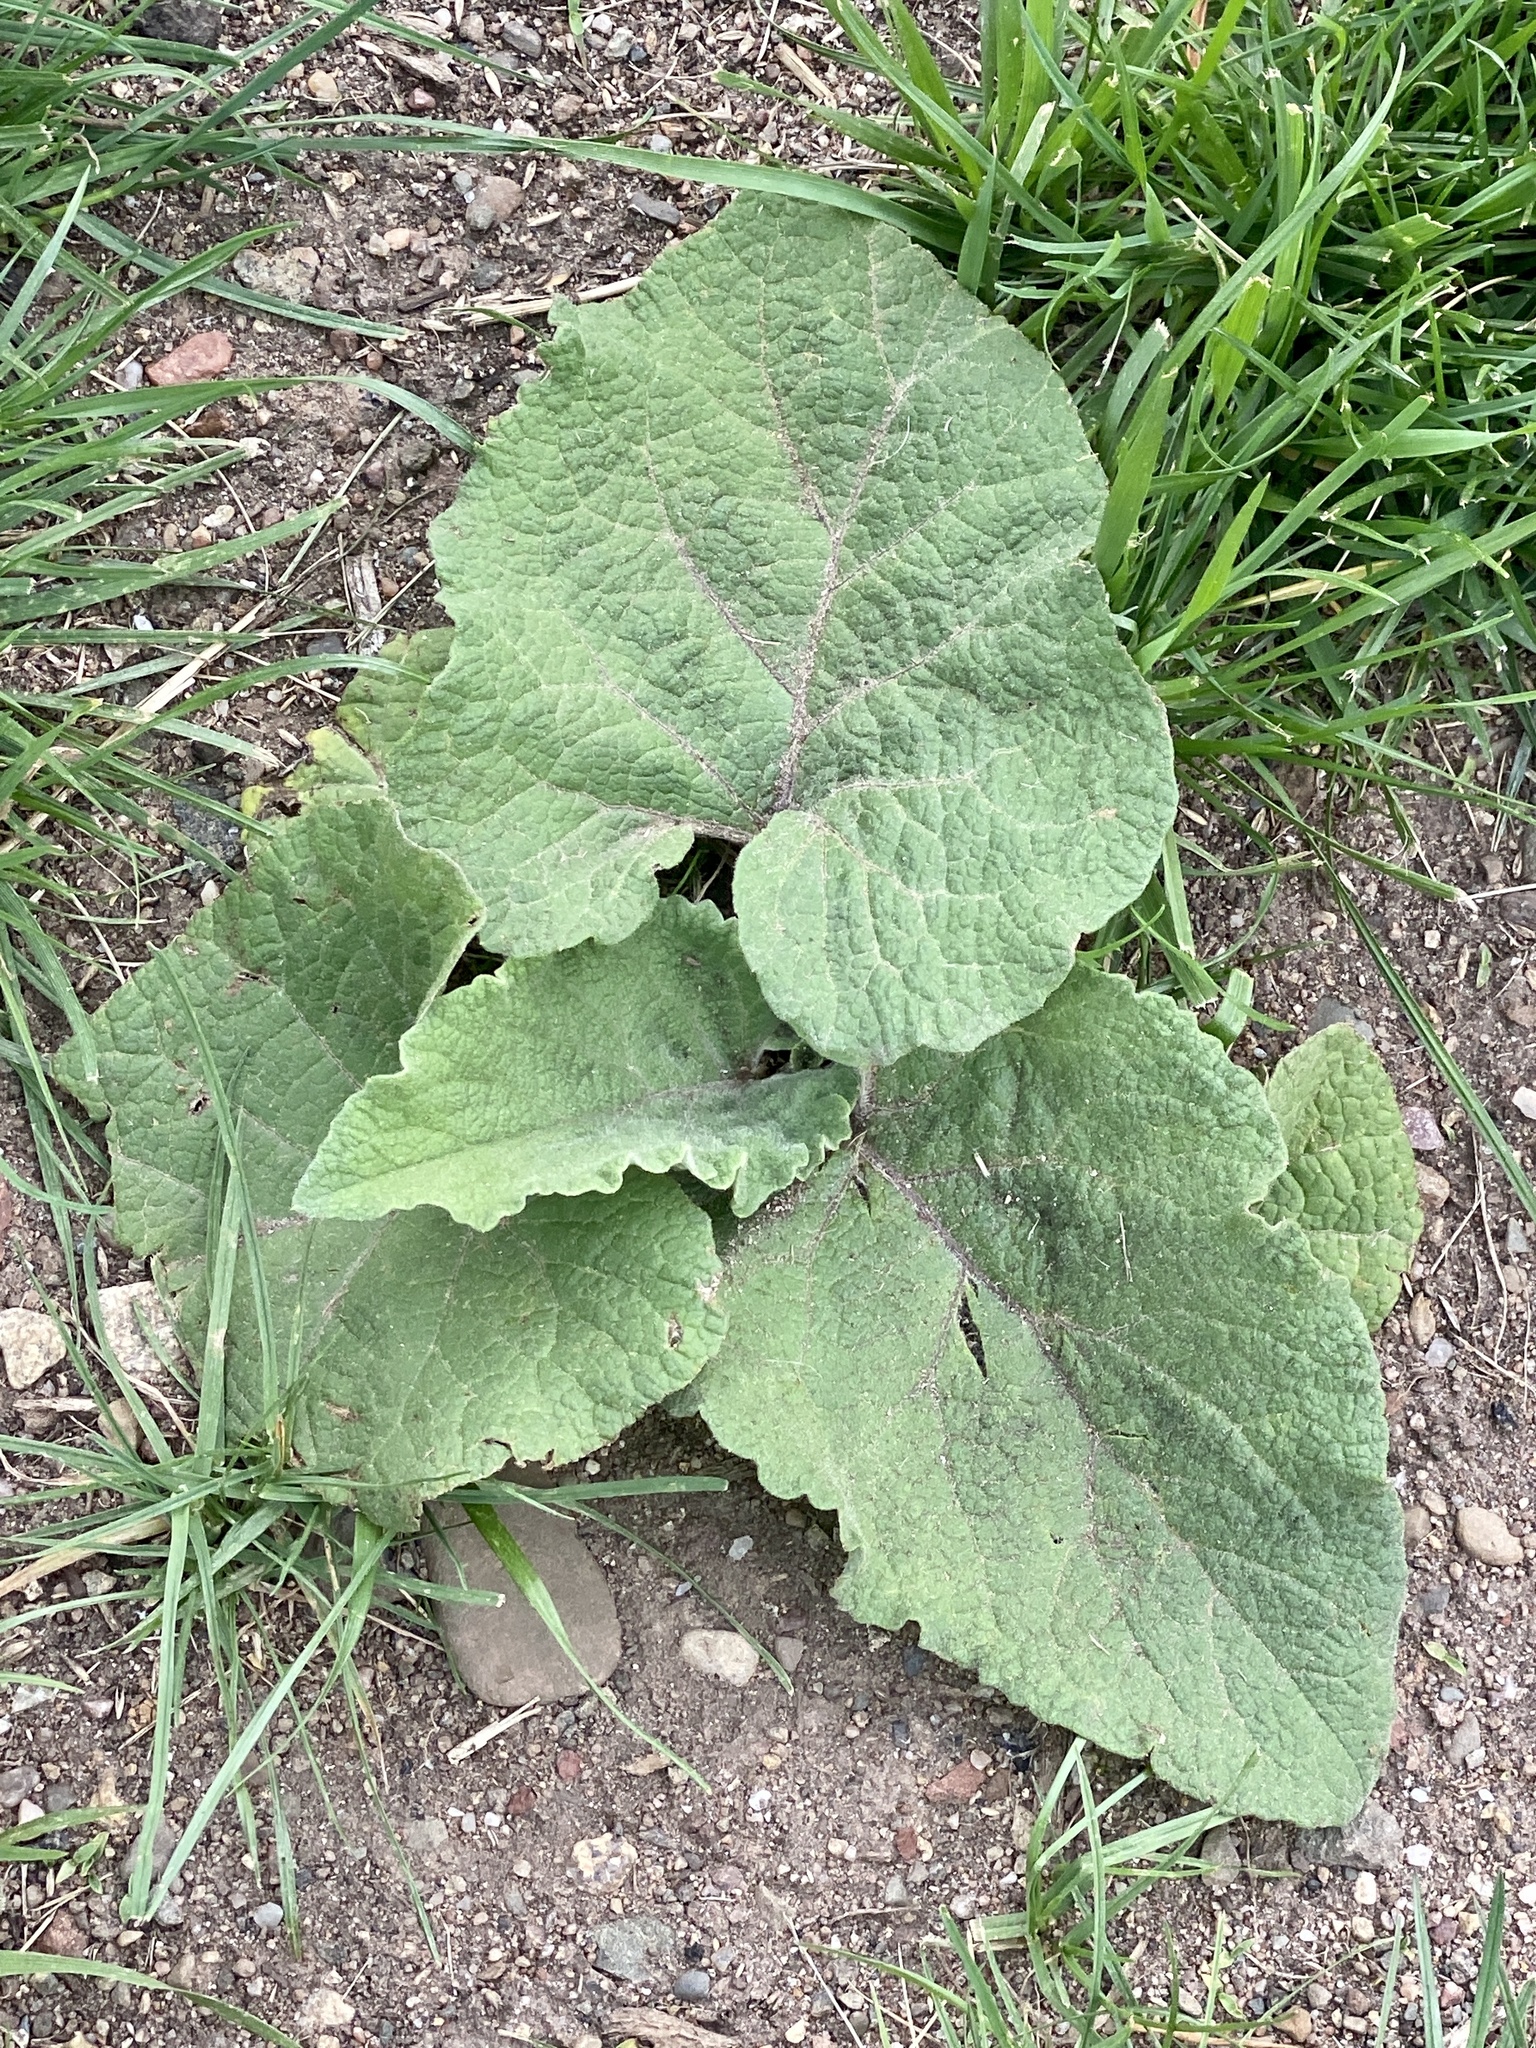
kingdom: Plantae
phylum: Tracheophyta
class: Magnoliopsida
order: Asterales
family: Asteraceae
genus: Arctium
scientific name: Arctium
